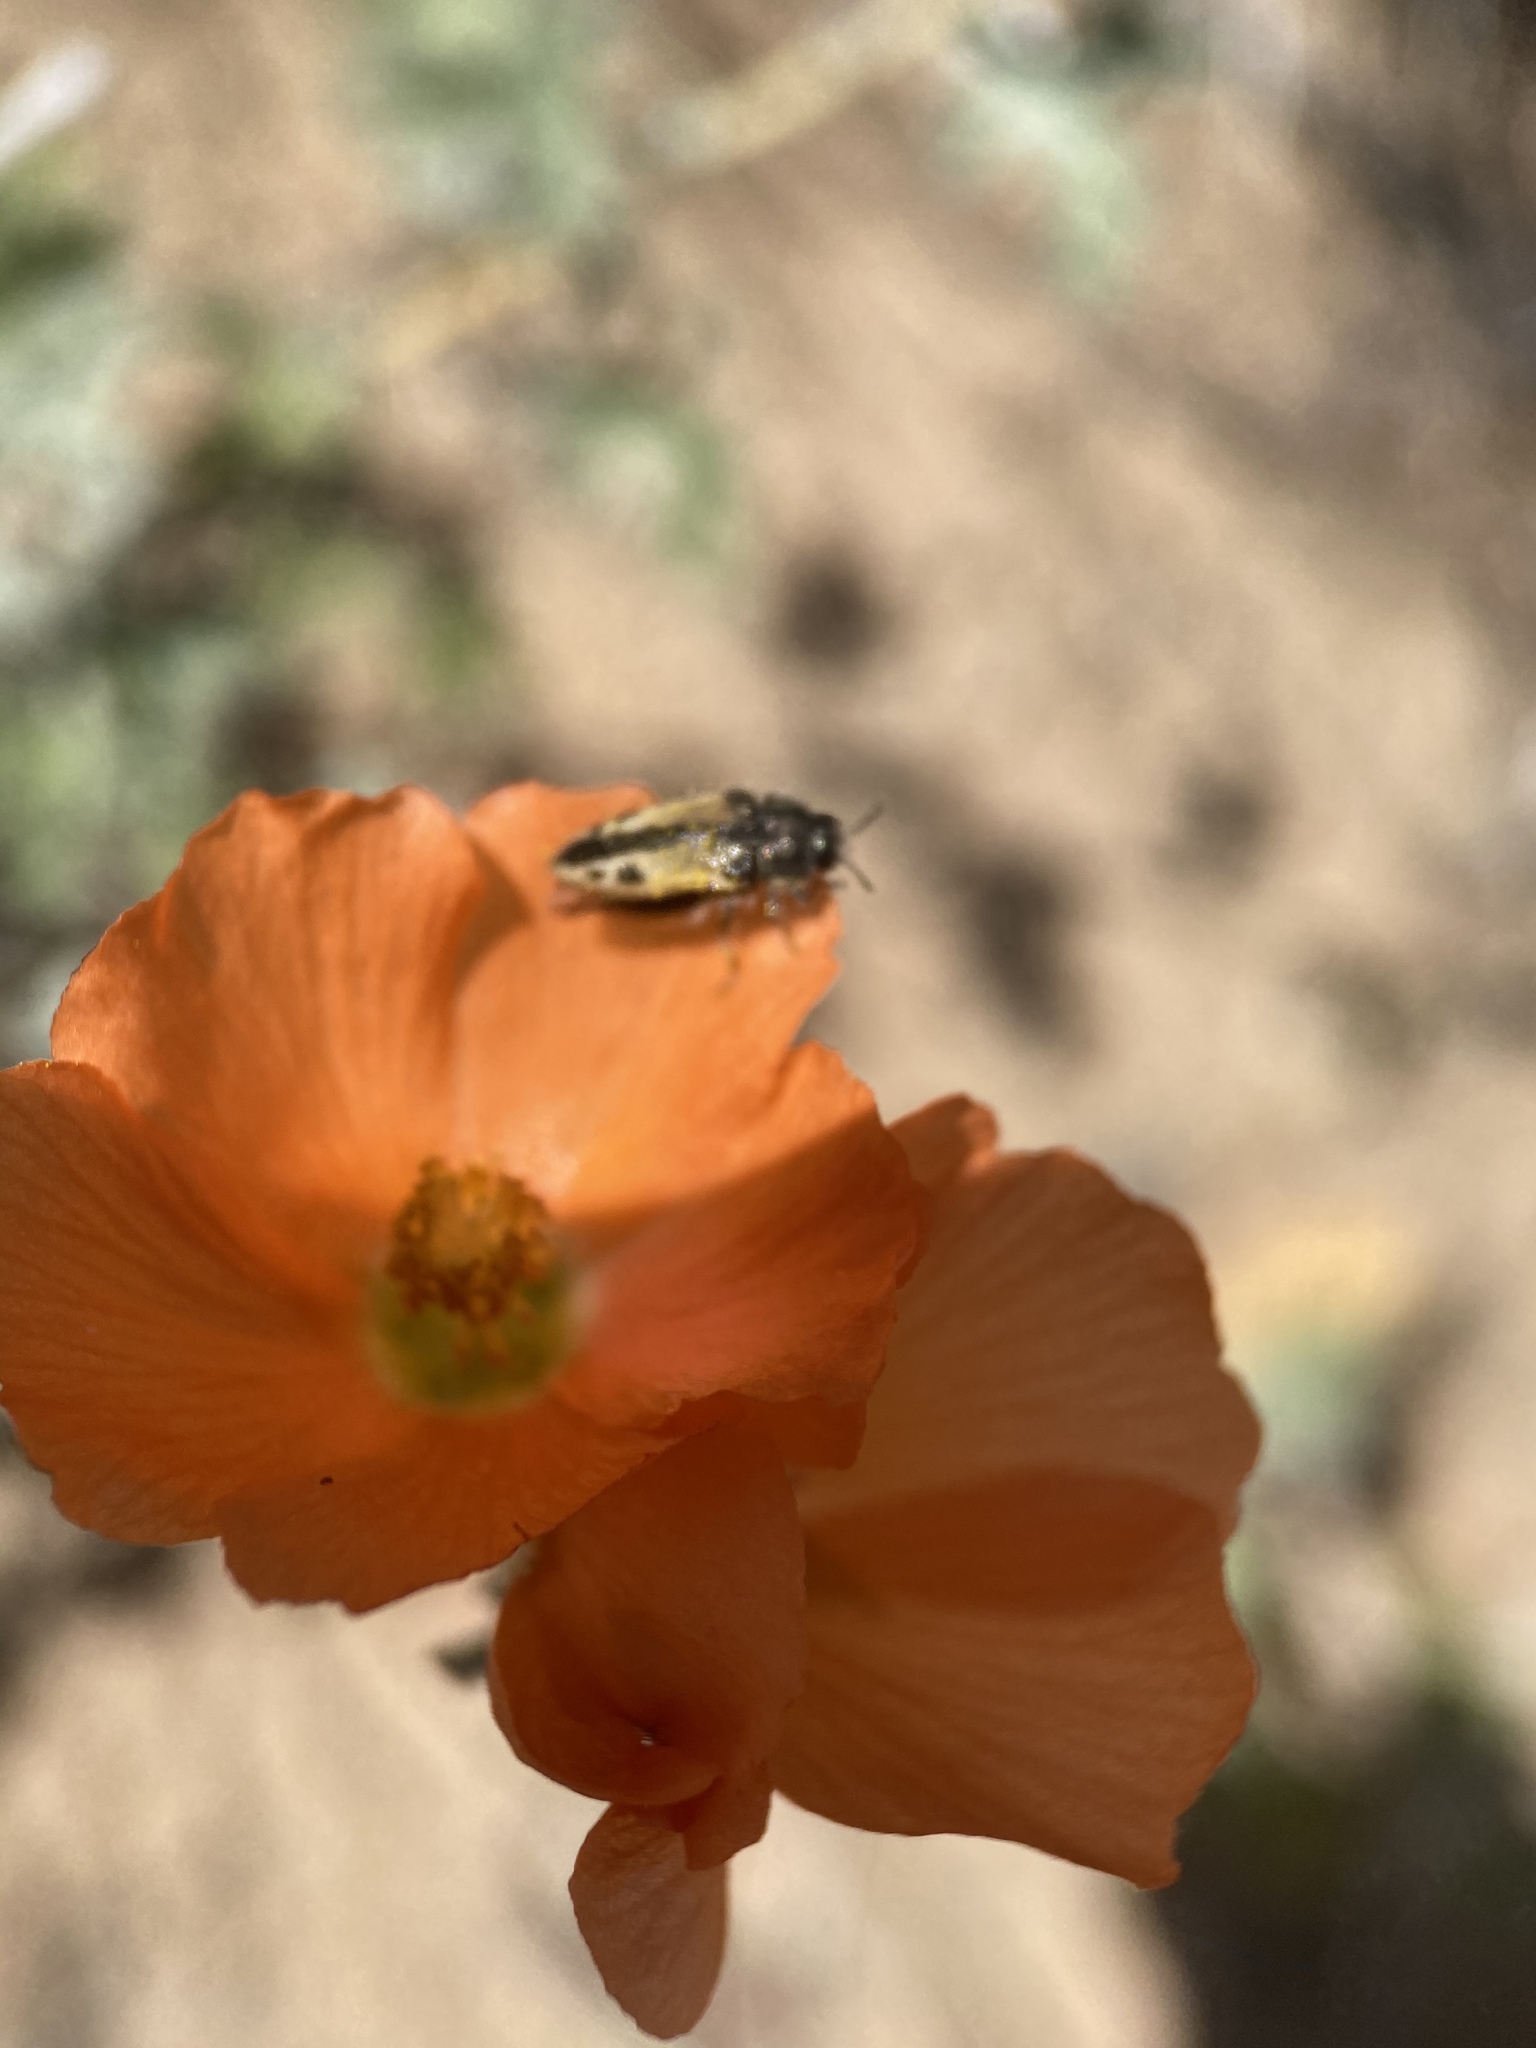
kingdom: Animalia
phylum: Arthropoda
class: Insecta
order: Coleoptera
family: Buprestidae
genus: Acmaeodera
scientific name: Acmaeodera latiflava
